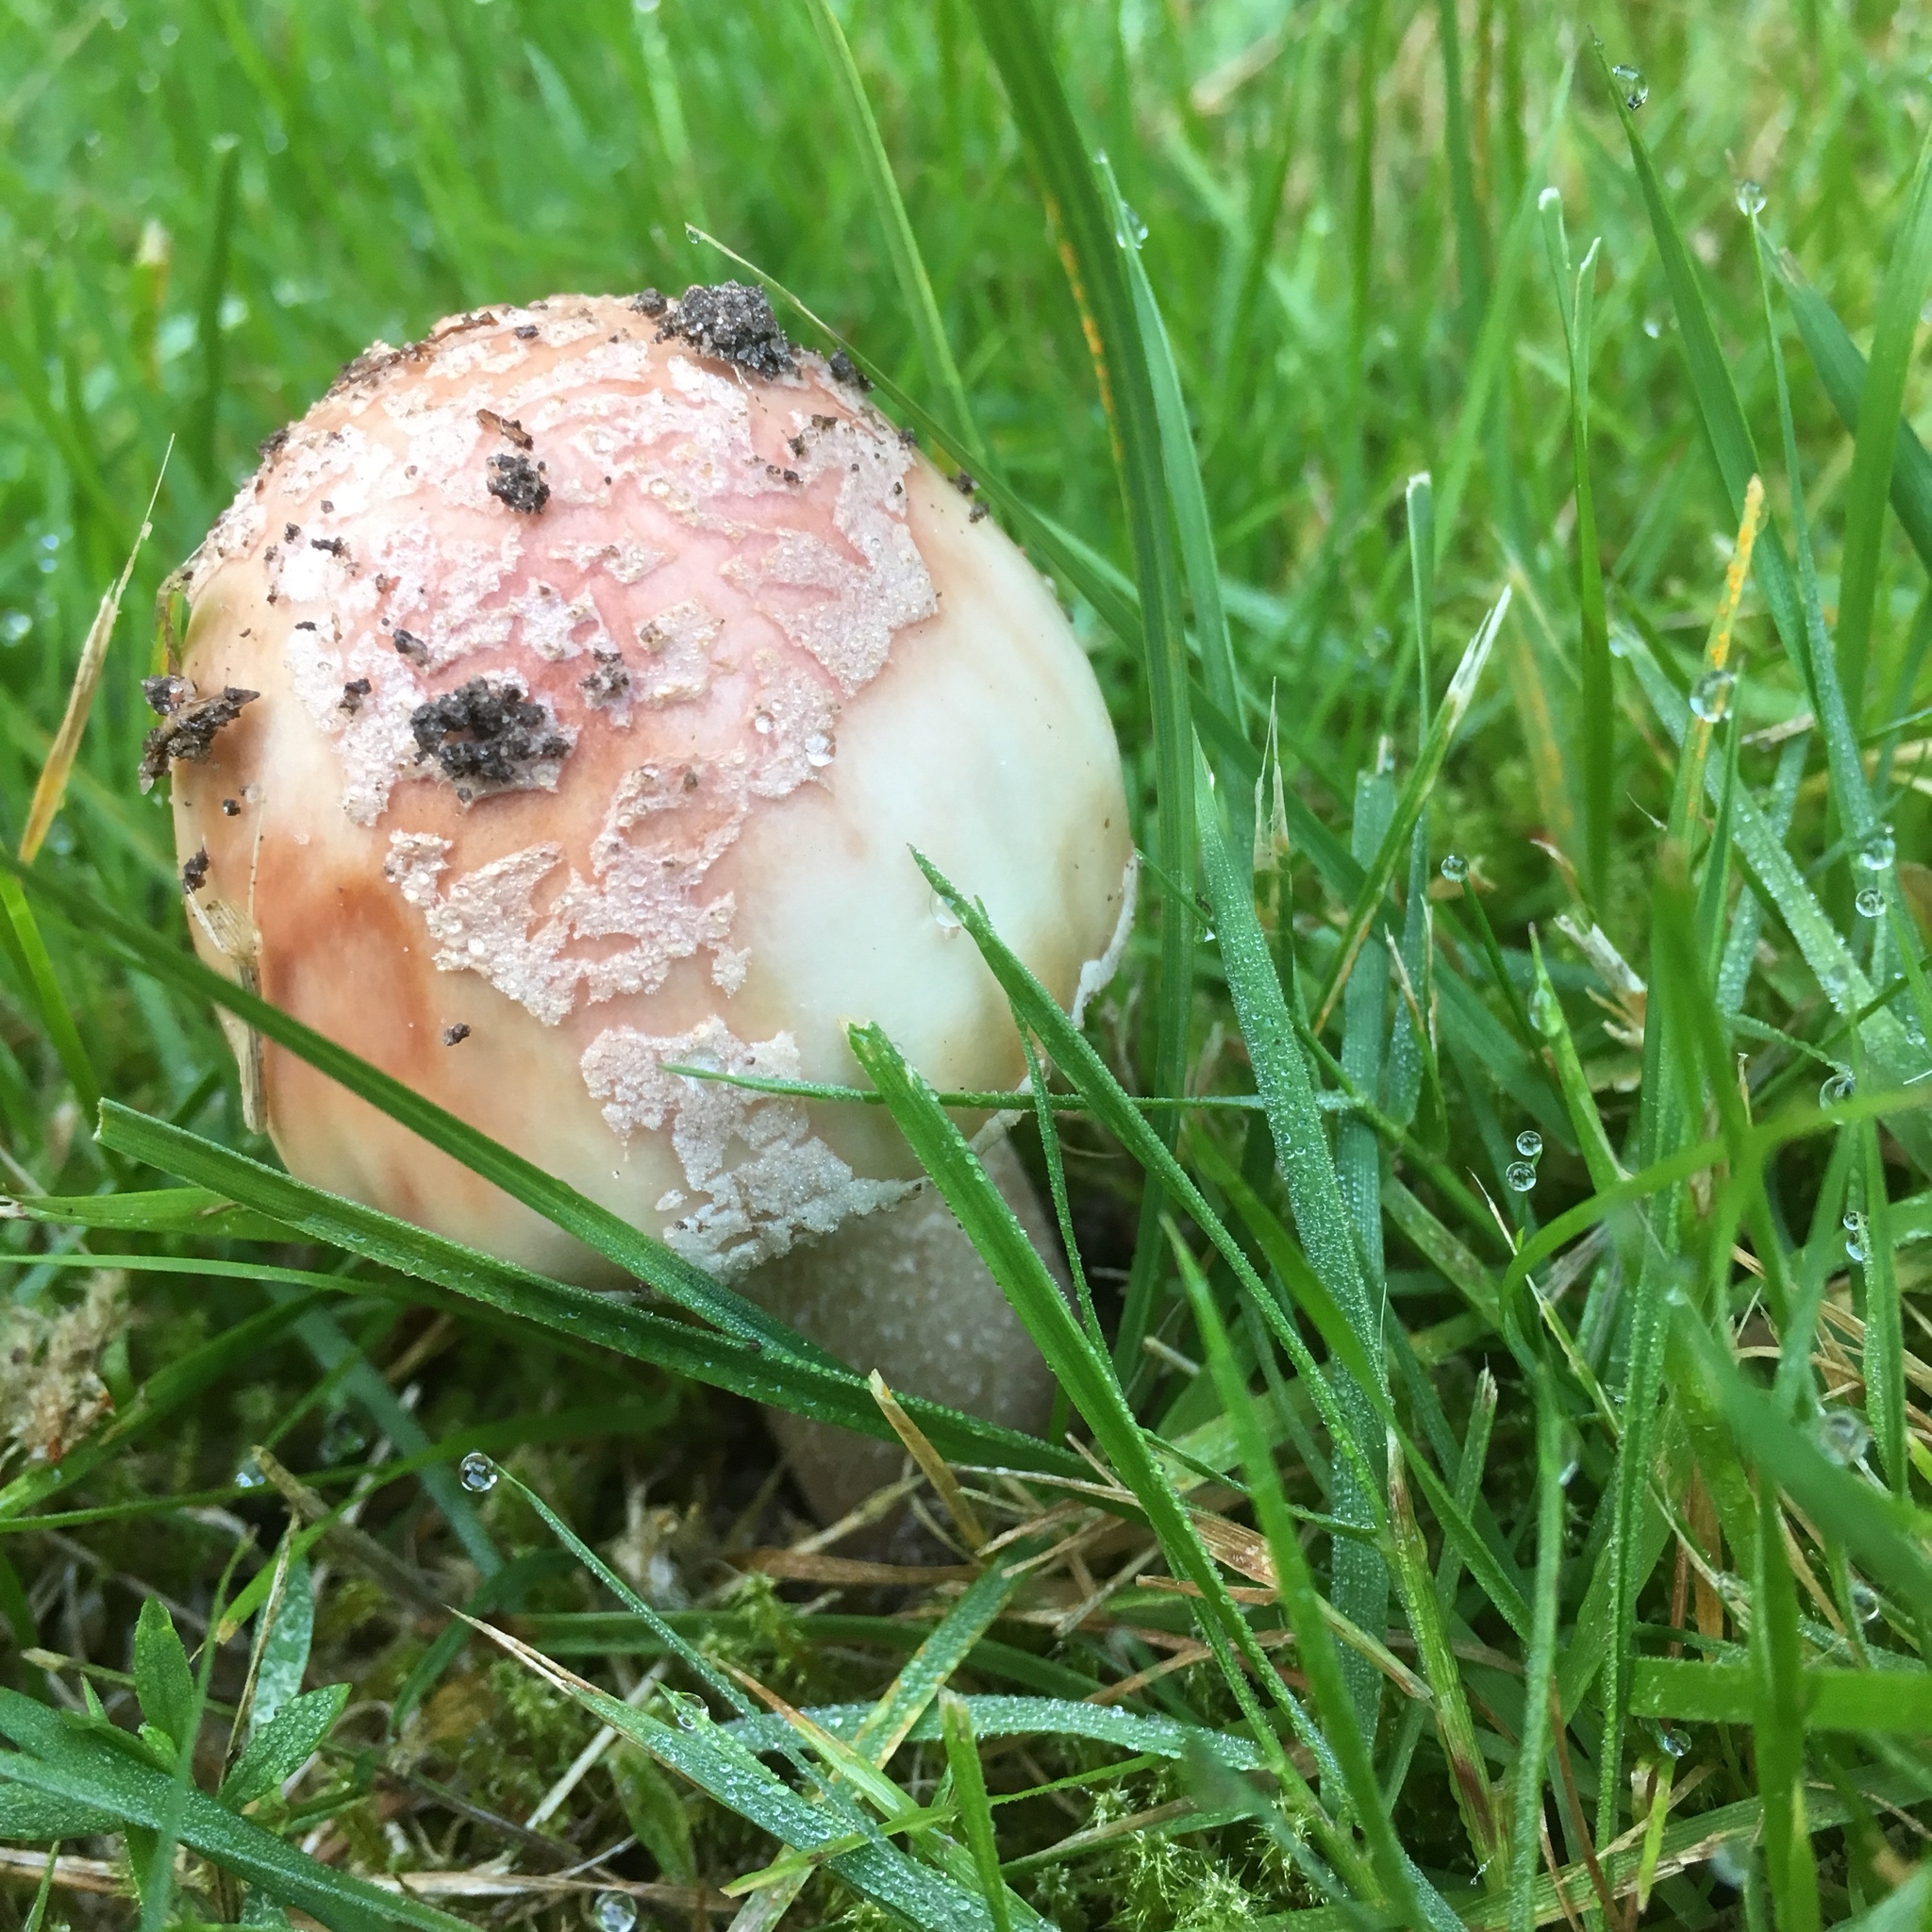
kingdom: Fungi
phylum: Basidiomycota
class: Agaricomycetes
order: Agaricales
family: Amanitaceae
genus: Amanita
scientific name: Amanita rubescens
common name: Blusher
